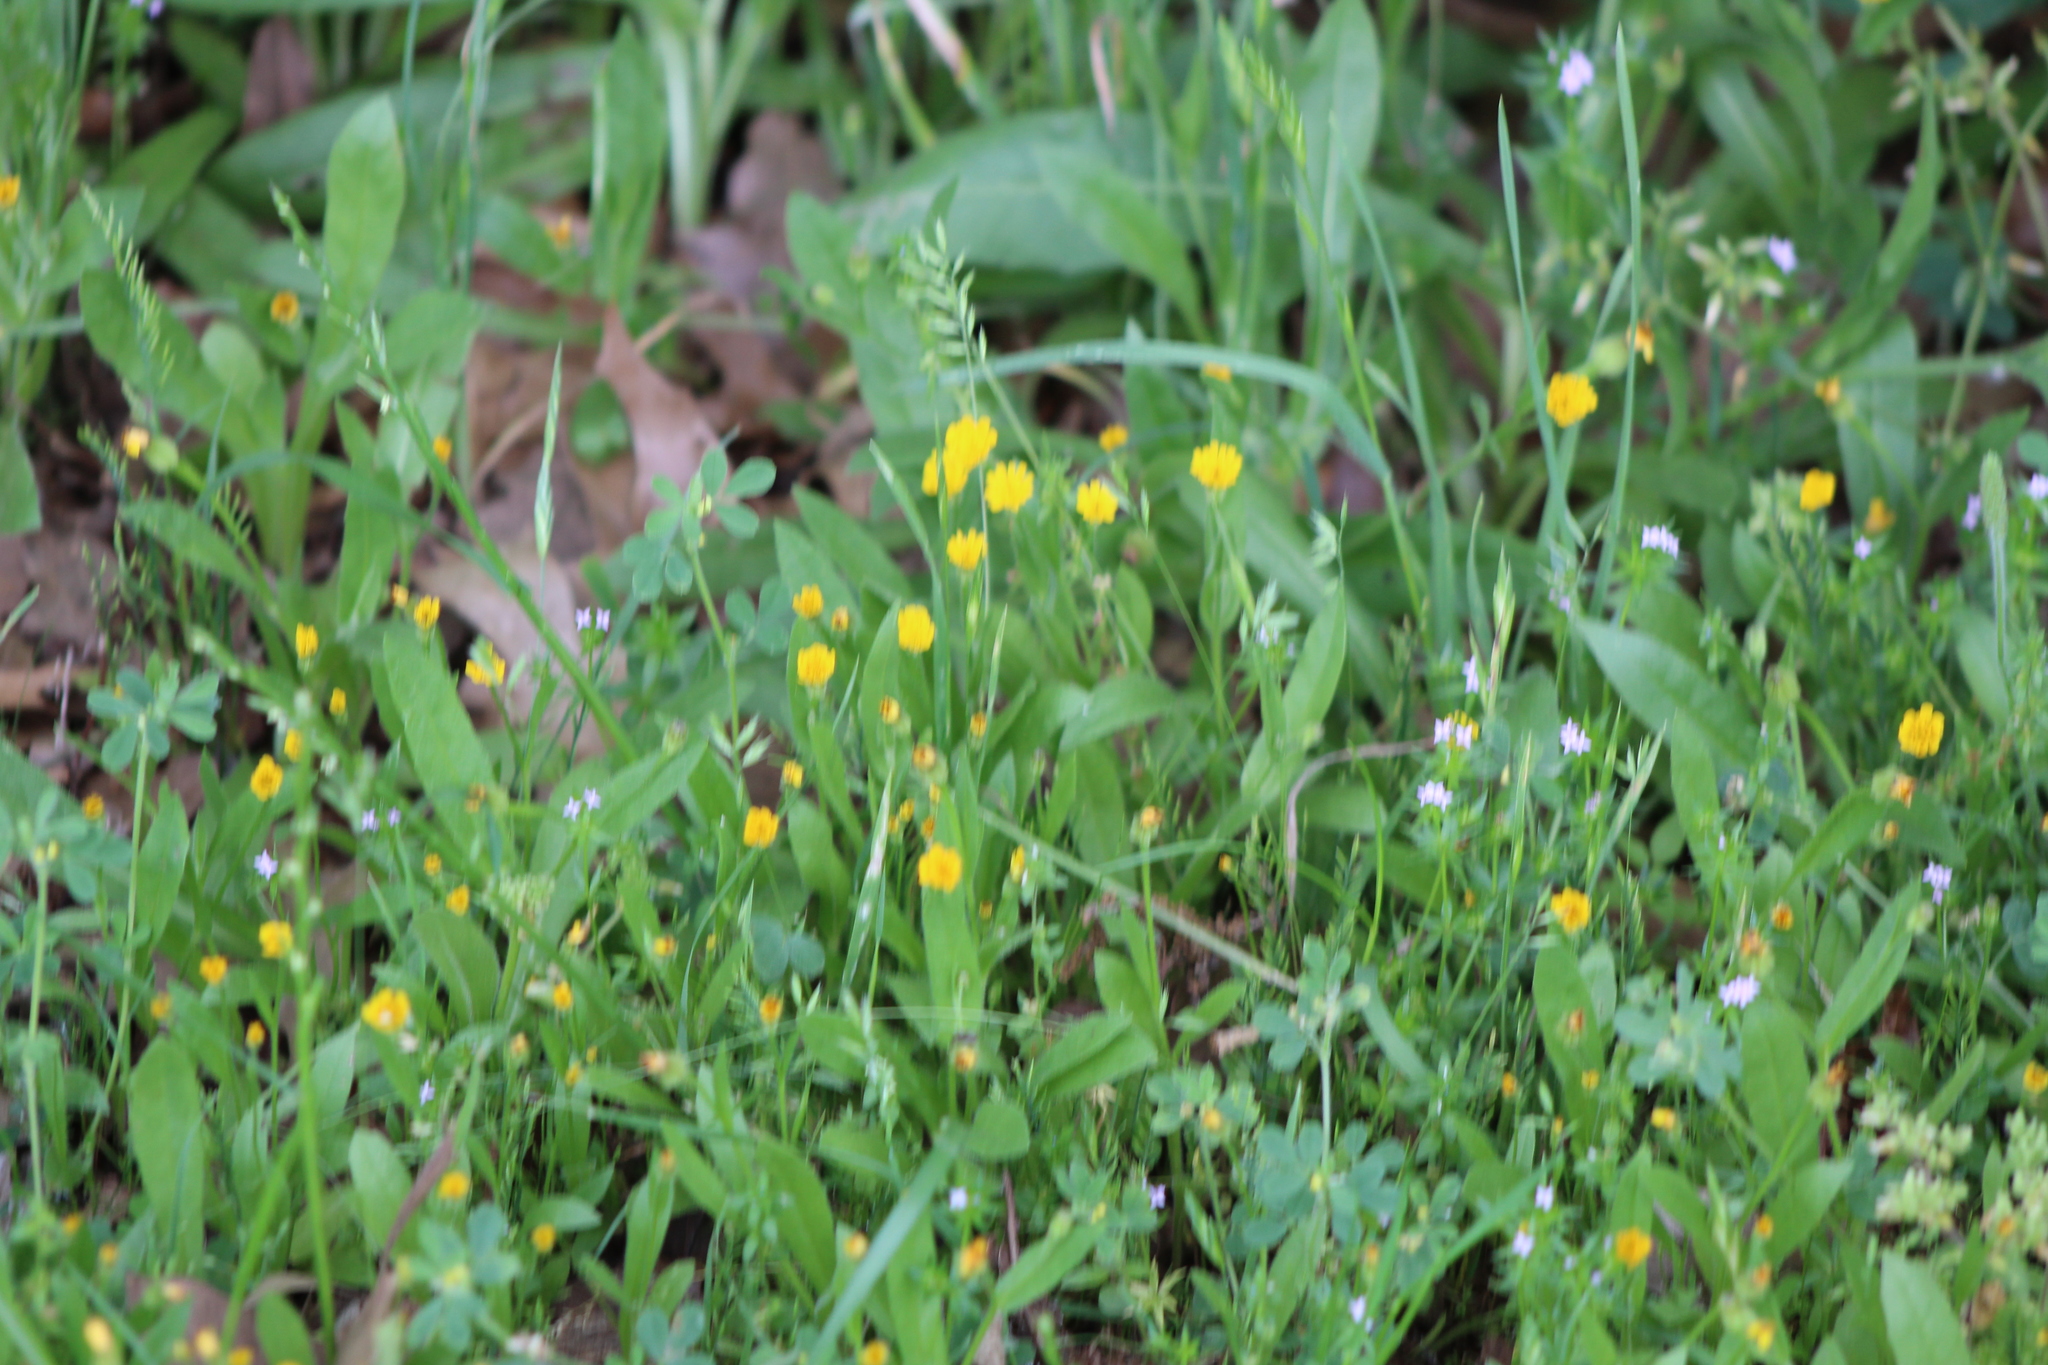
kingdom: Plantae
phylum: Tracheophyta
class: Magnoliopsida
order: Asterales
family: Asteraceae
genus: Hedypnois
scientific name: Hedypnois rhagadioloides
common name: Cretan weed
